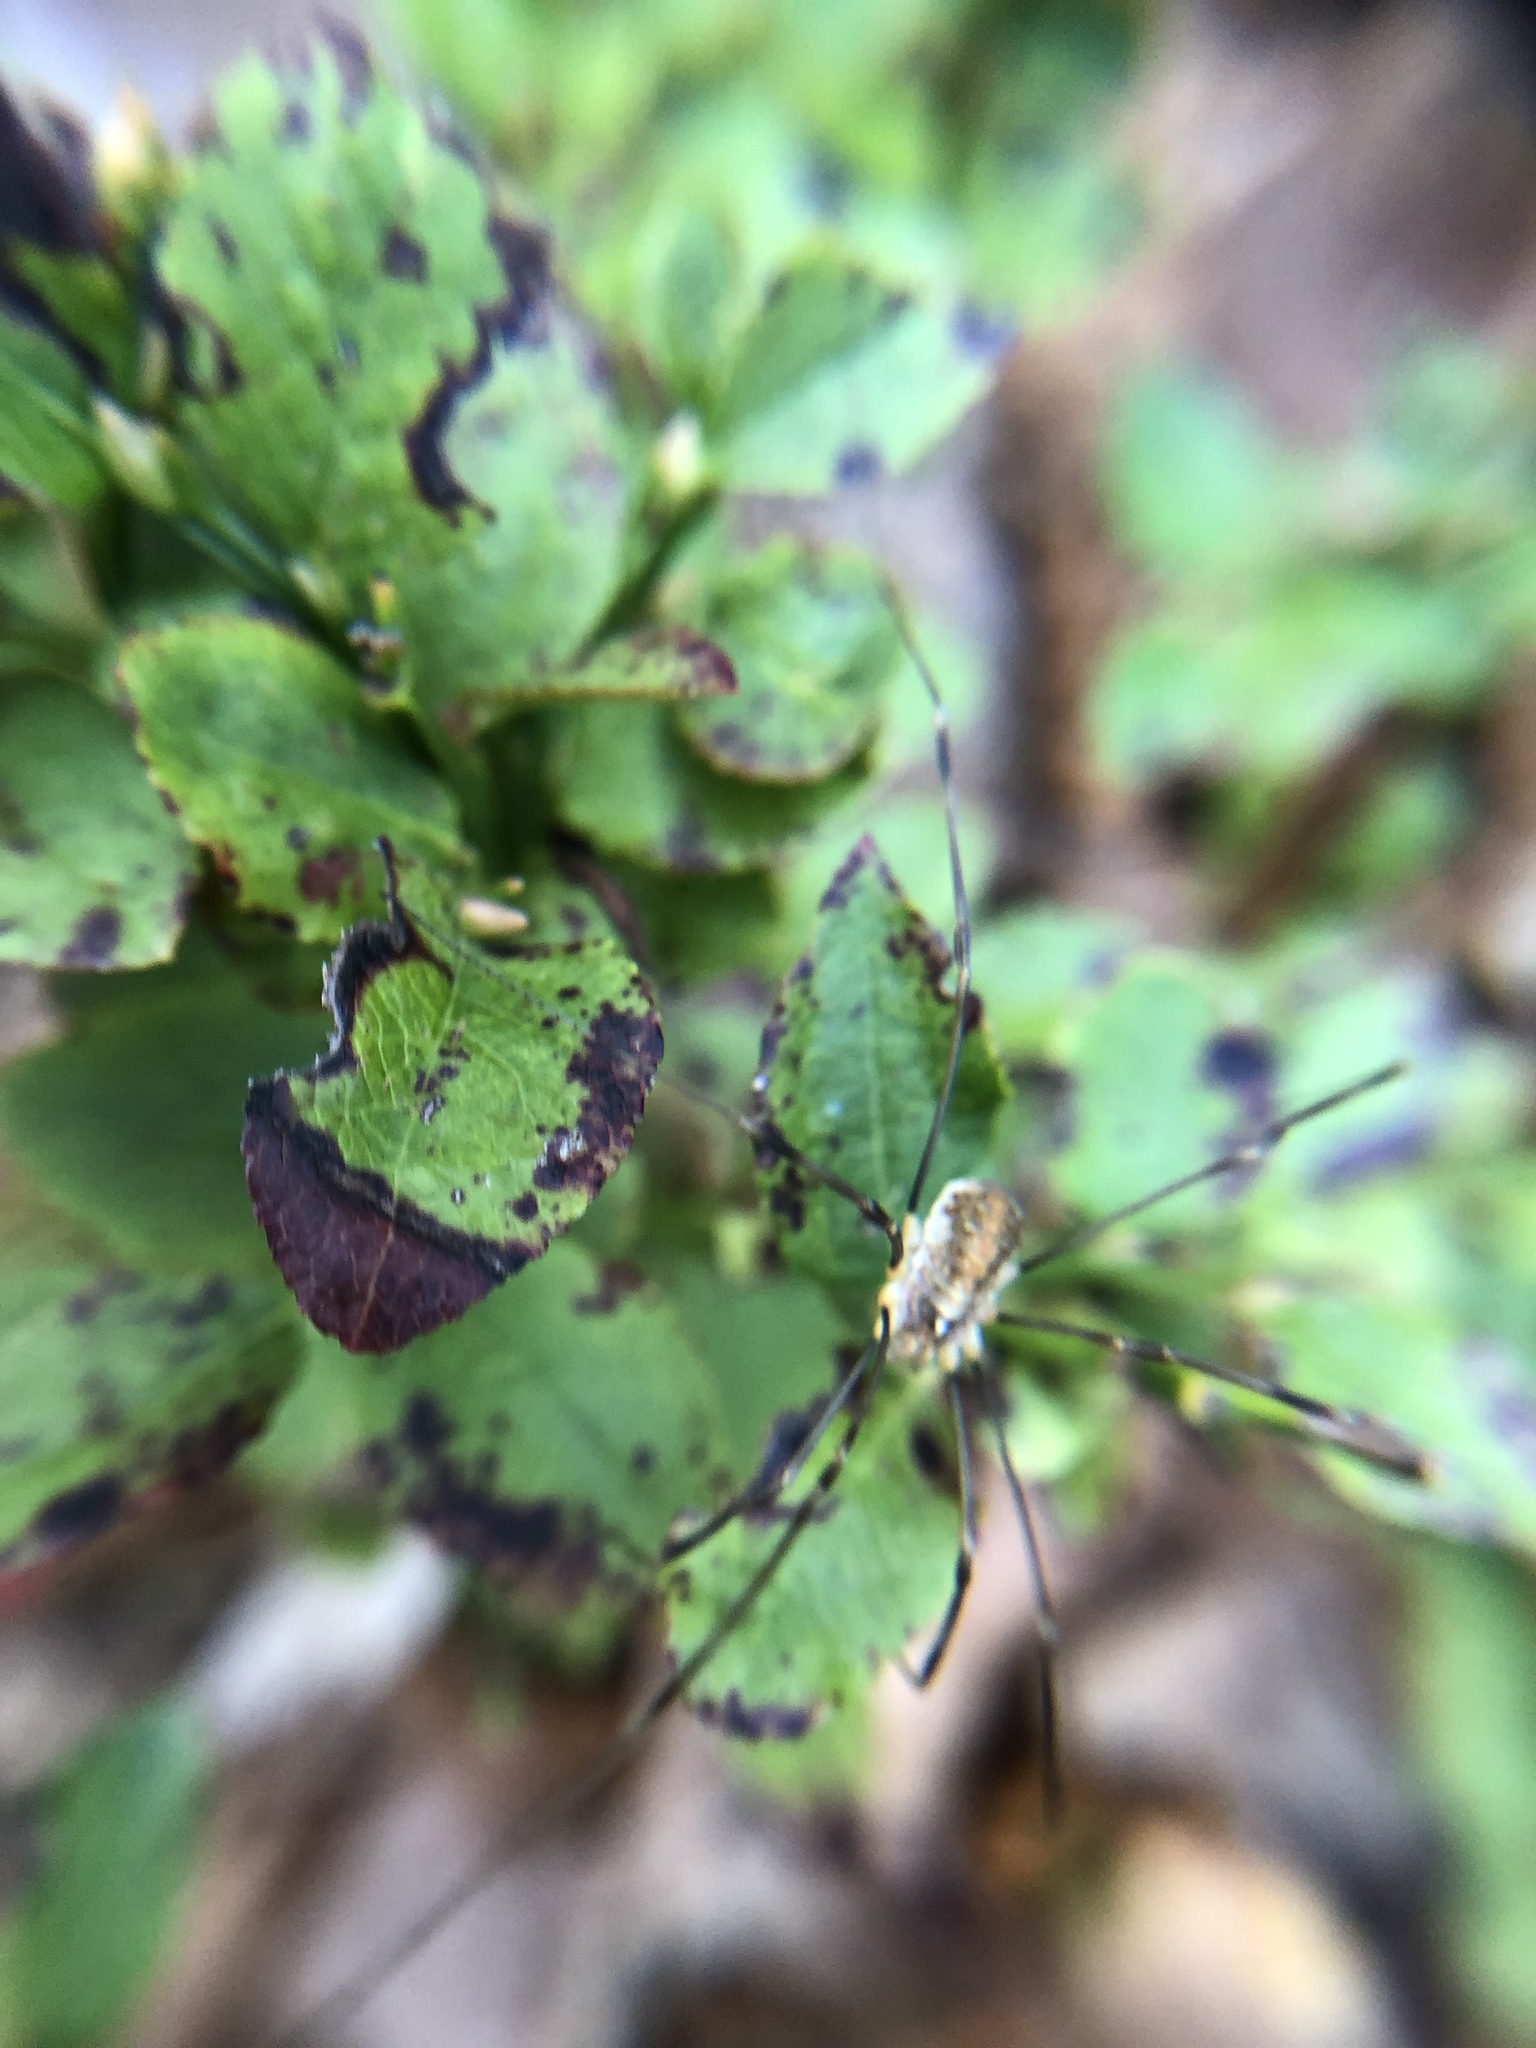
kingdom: Animalia
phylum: Arthropoda
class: Arachnida
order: Opiliones
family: Phalangiidae
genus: Opilio
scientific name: Opilio canestrinii
